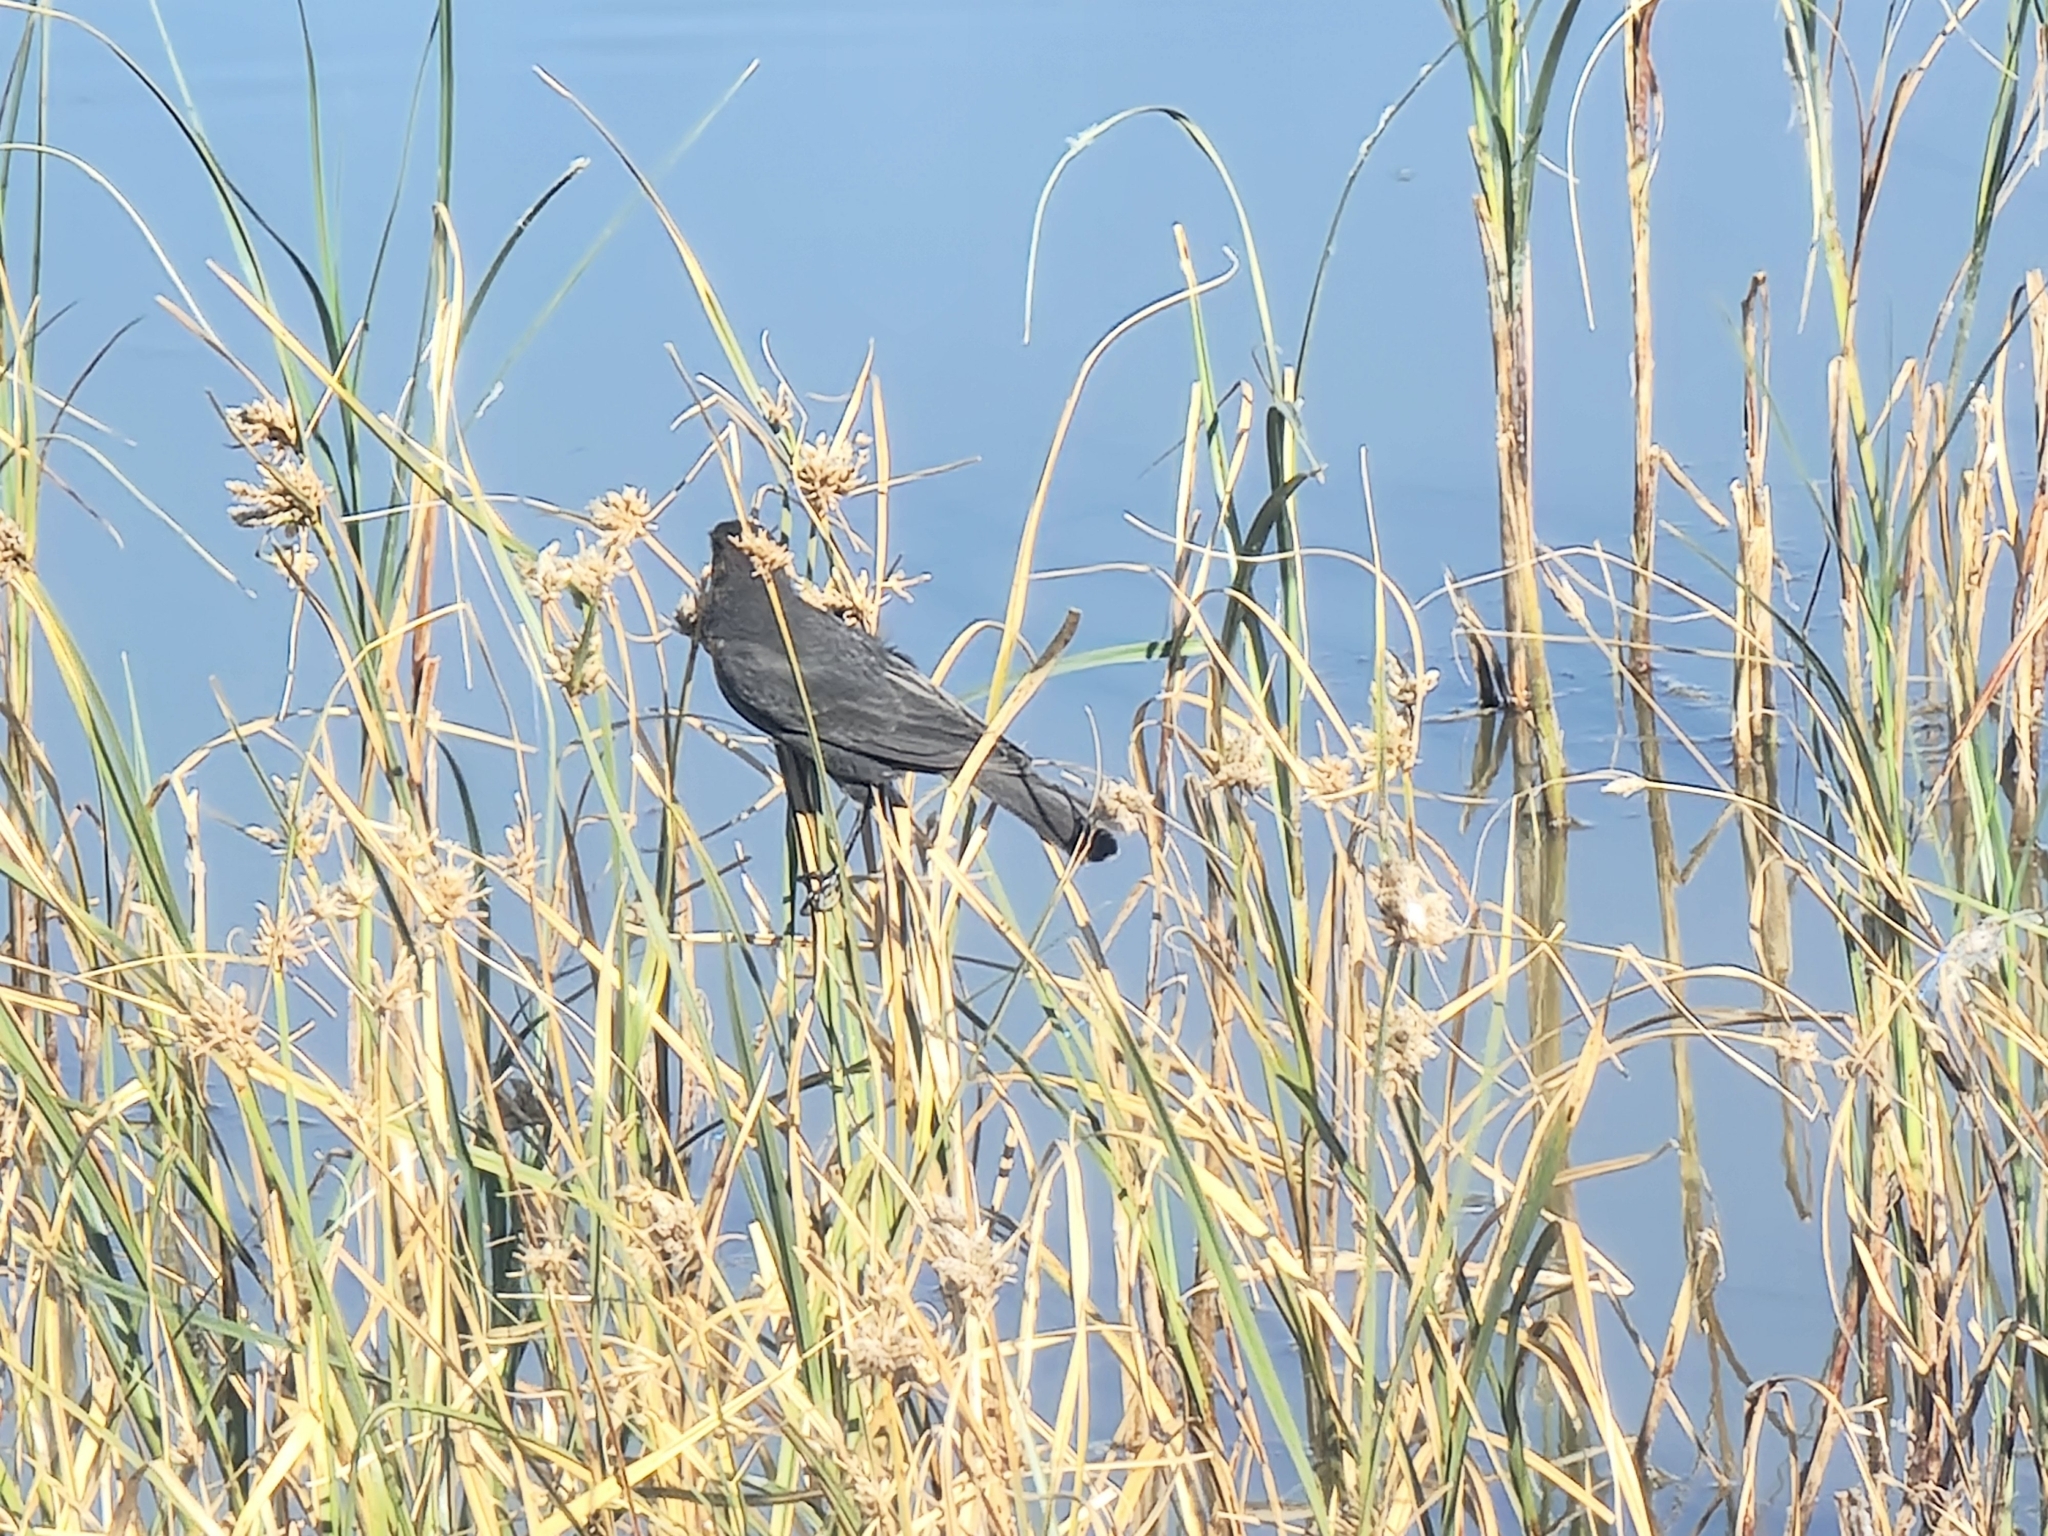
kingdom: Animalia
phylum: Chordata
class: Aves
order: Passeriformes
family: Icteridae
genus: Xanthocephalus
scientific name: Xanthocephalus xanthocephalus
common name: Yellow-headed blackbird
